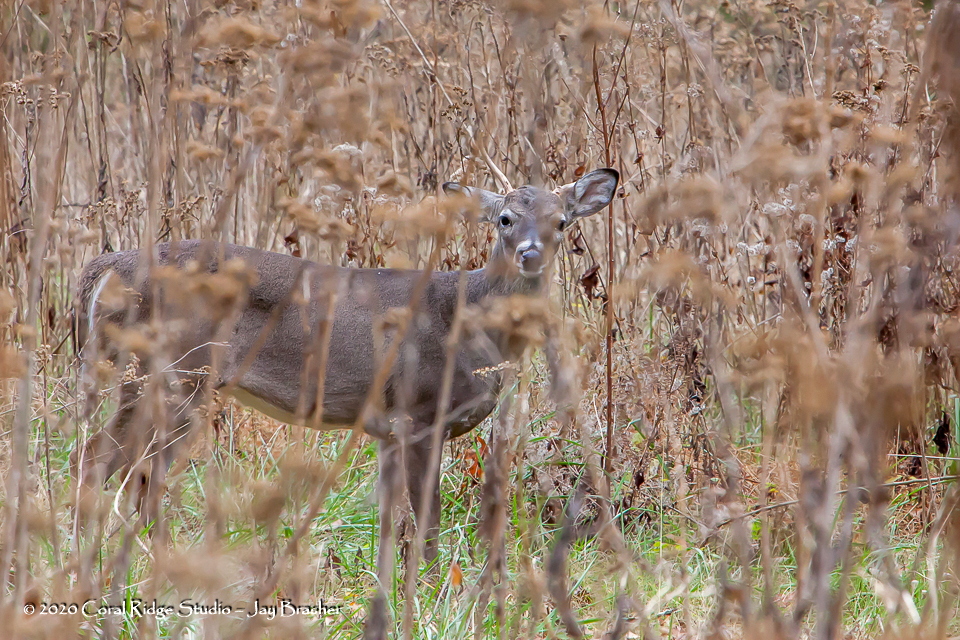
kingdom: Animalia
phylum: Chordata
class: Mammalia
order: Artiodactyla
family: Cervidae
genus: Odocoileus
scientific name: Odocoileus virginianus
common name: White-tailed deer
